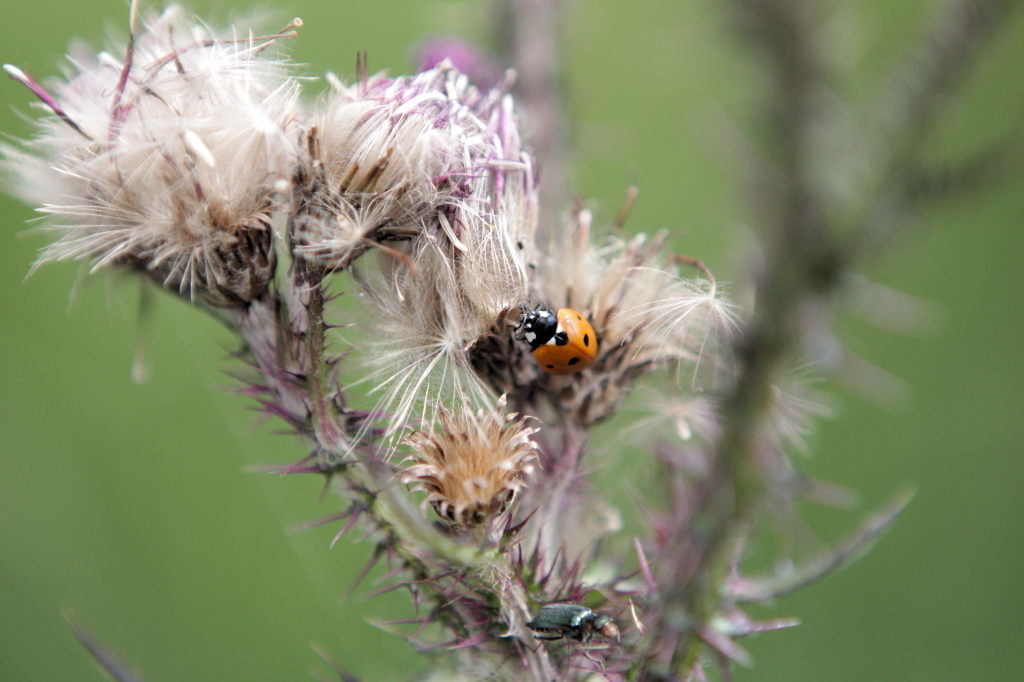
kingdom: Animalia
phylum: Arthropoda
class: Insecta
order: Coleoptera
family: Coccinellidae
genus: Coccinella
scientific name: Coccinella septempunctata
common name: Sevenspotted lady beetle
